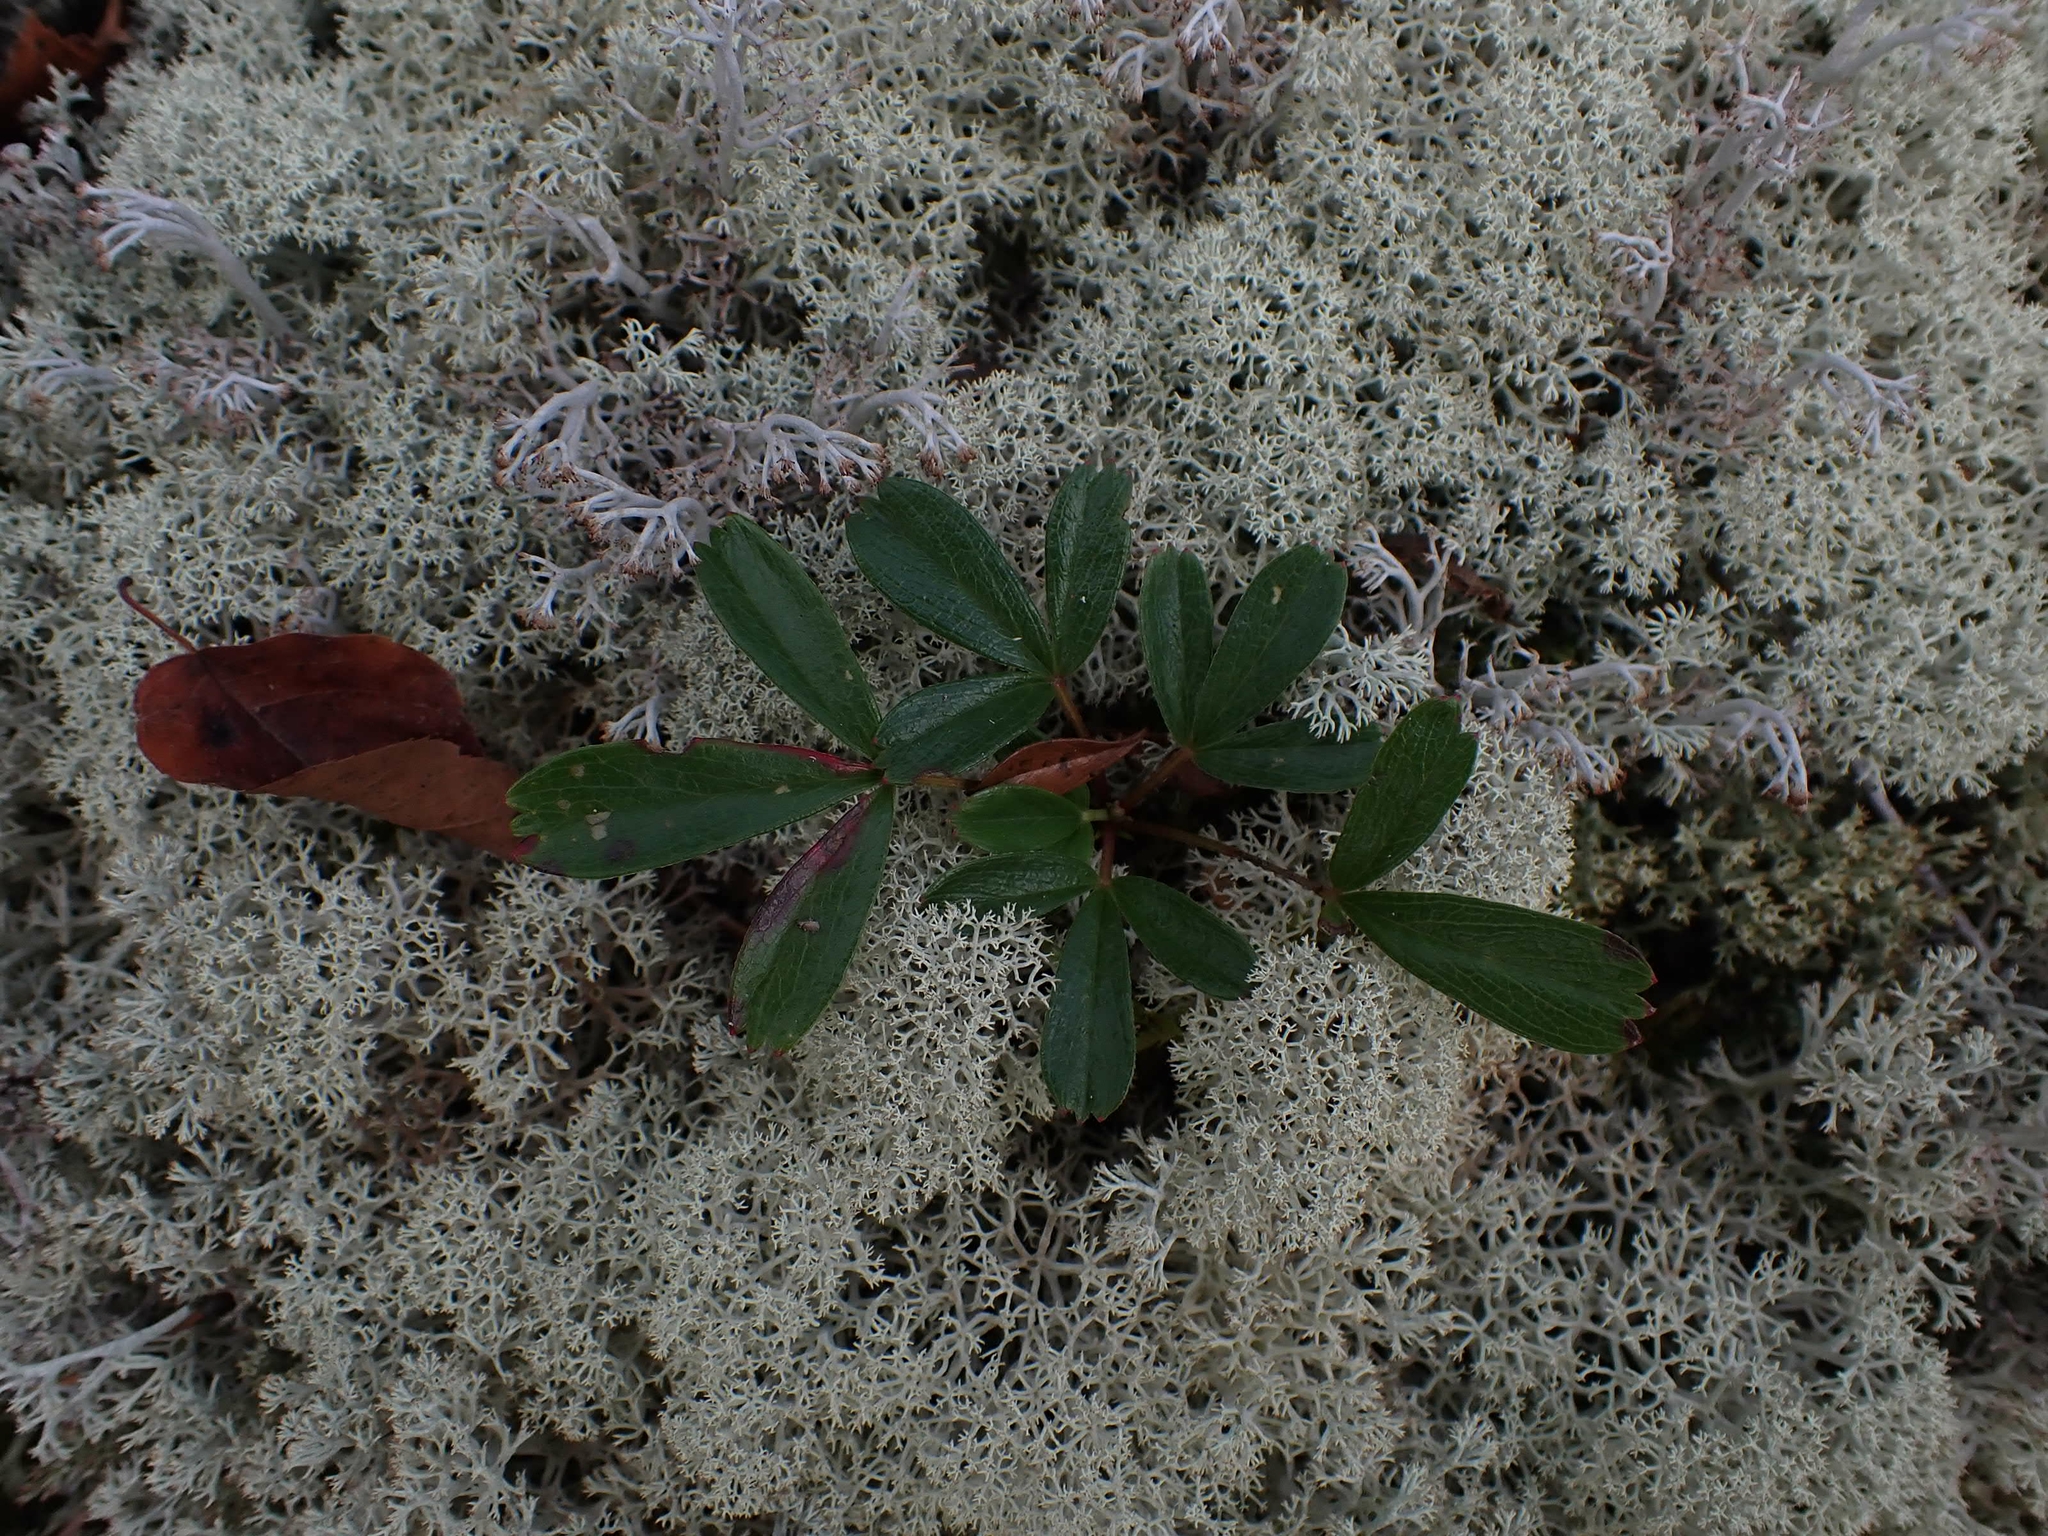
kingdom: Plantae
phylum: Tracheophyta
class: Magnoliopsida
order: Rosales
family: Rosaceae
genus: Sibbaldia
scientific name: Sibbaldia tridentata
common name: Three-toothed cinquefoil
